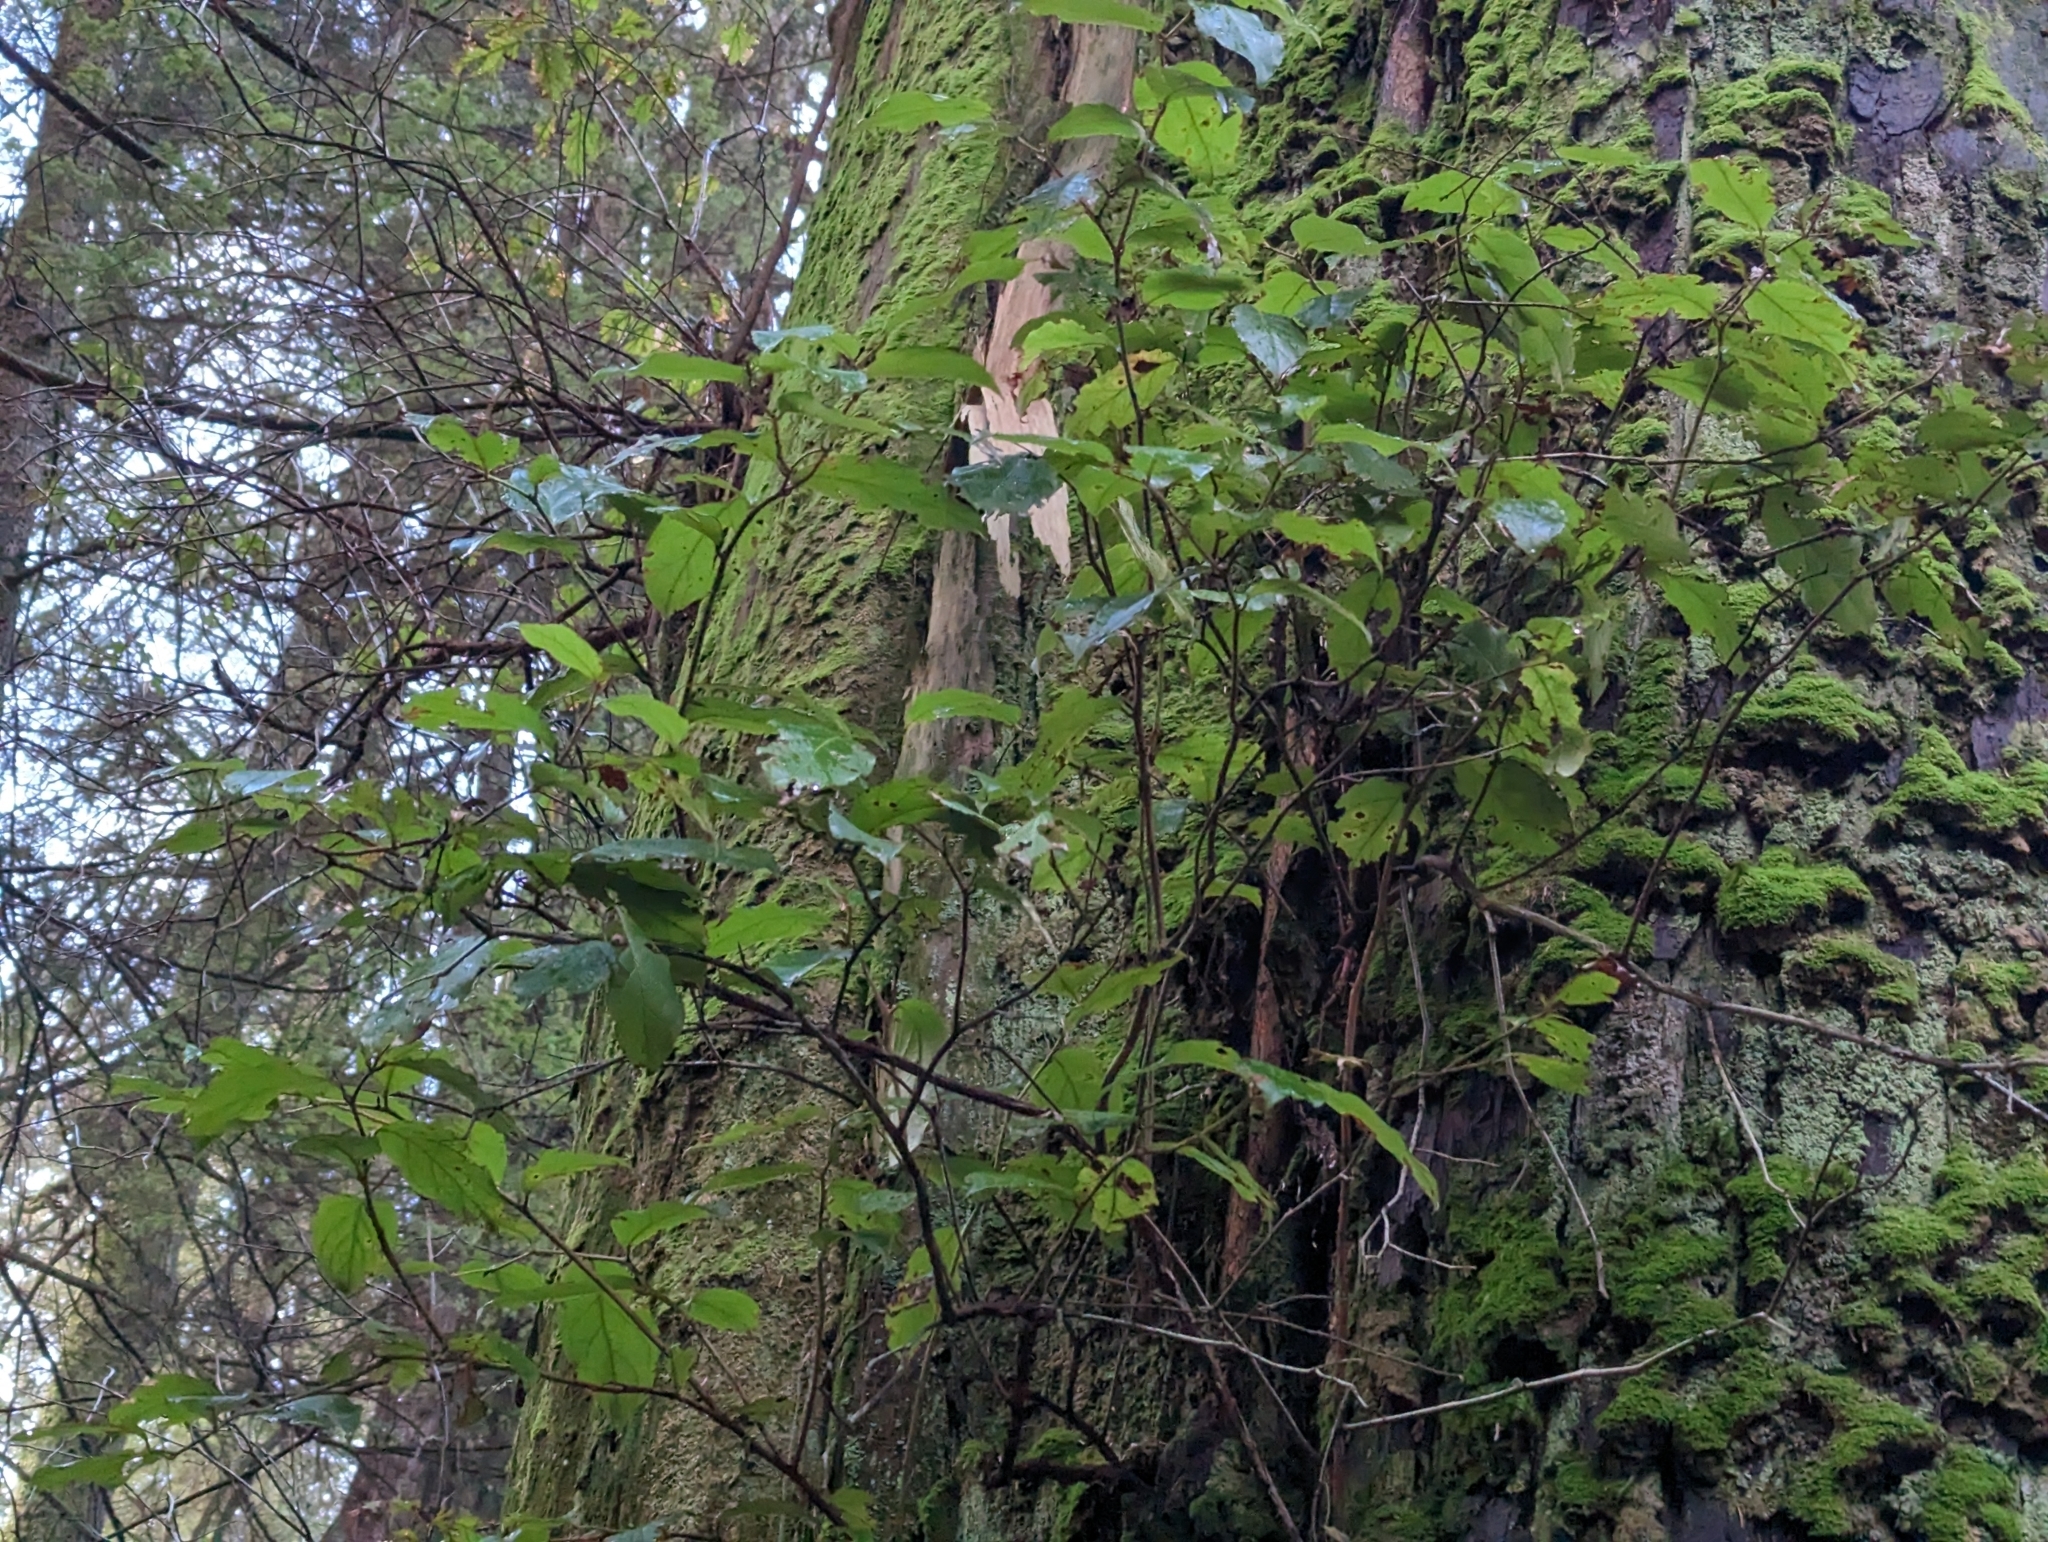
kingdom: Plantae
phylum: Tracheophyta
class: Magnoliopsida
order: Ericales
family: Ericaceae
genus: Gaultheria
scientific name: Gaultheria shallon
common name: Shallon
